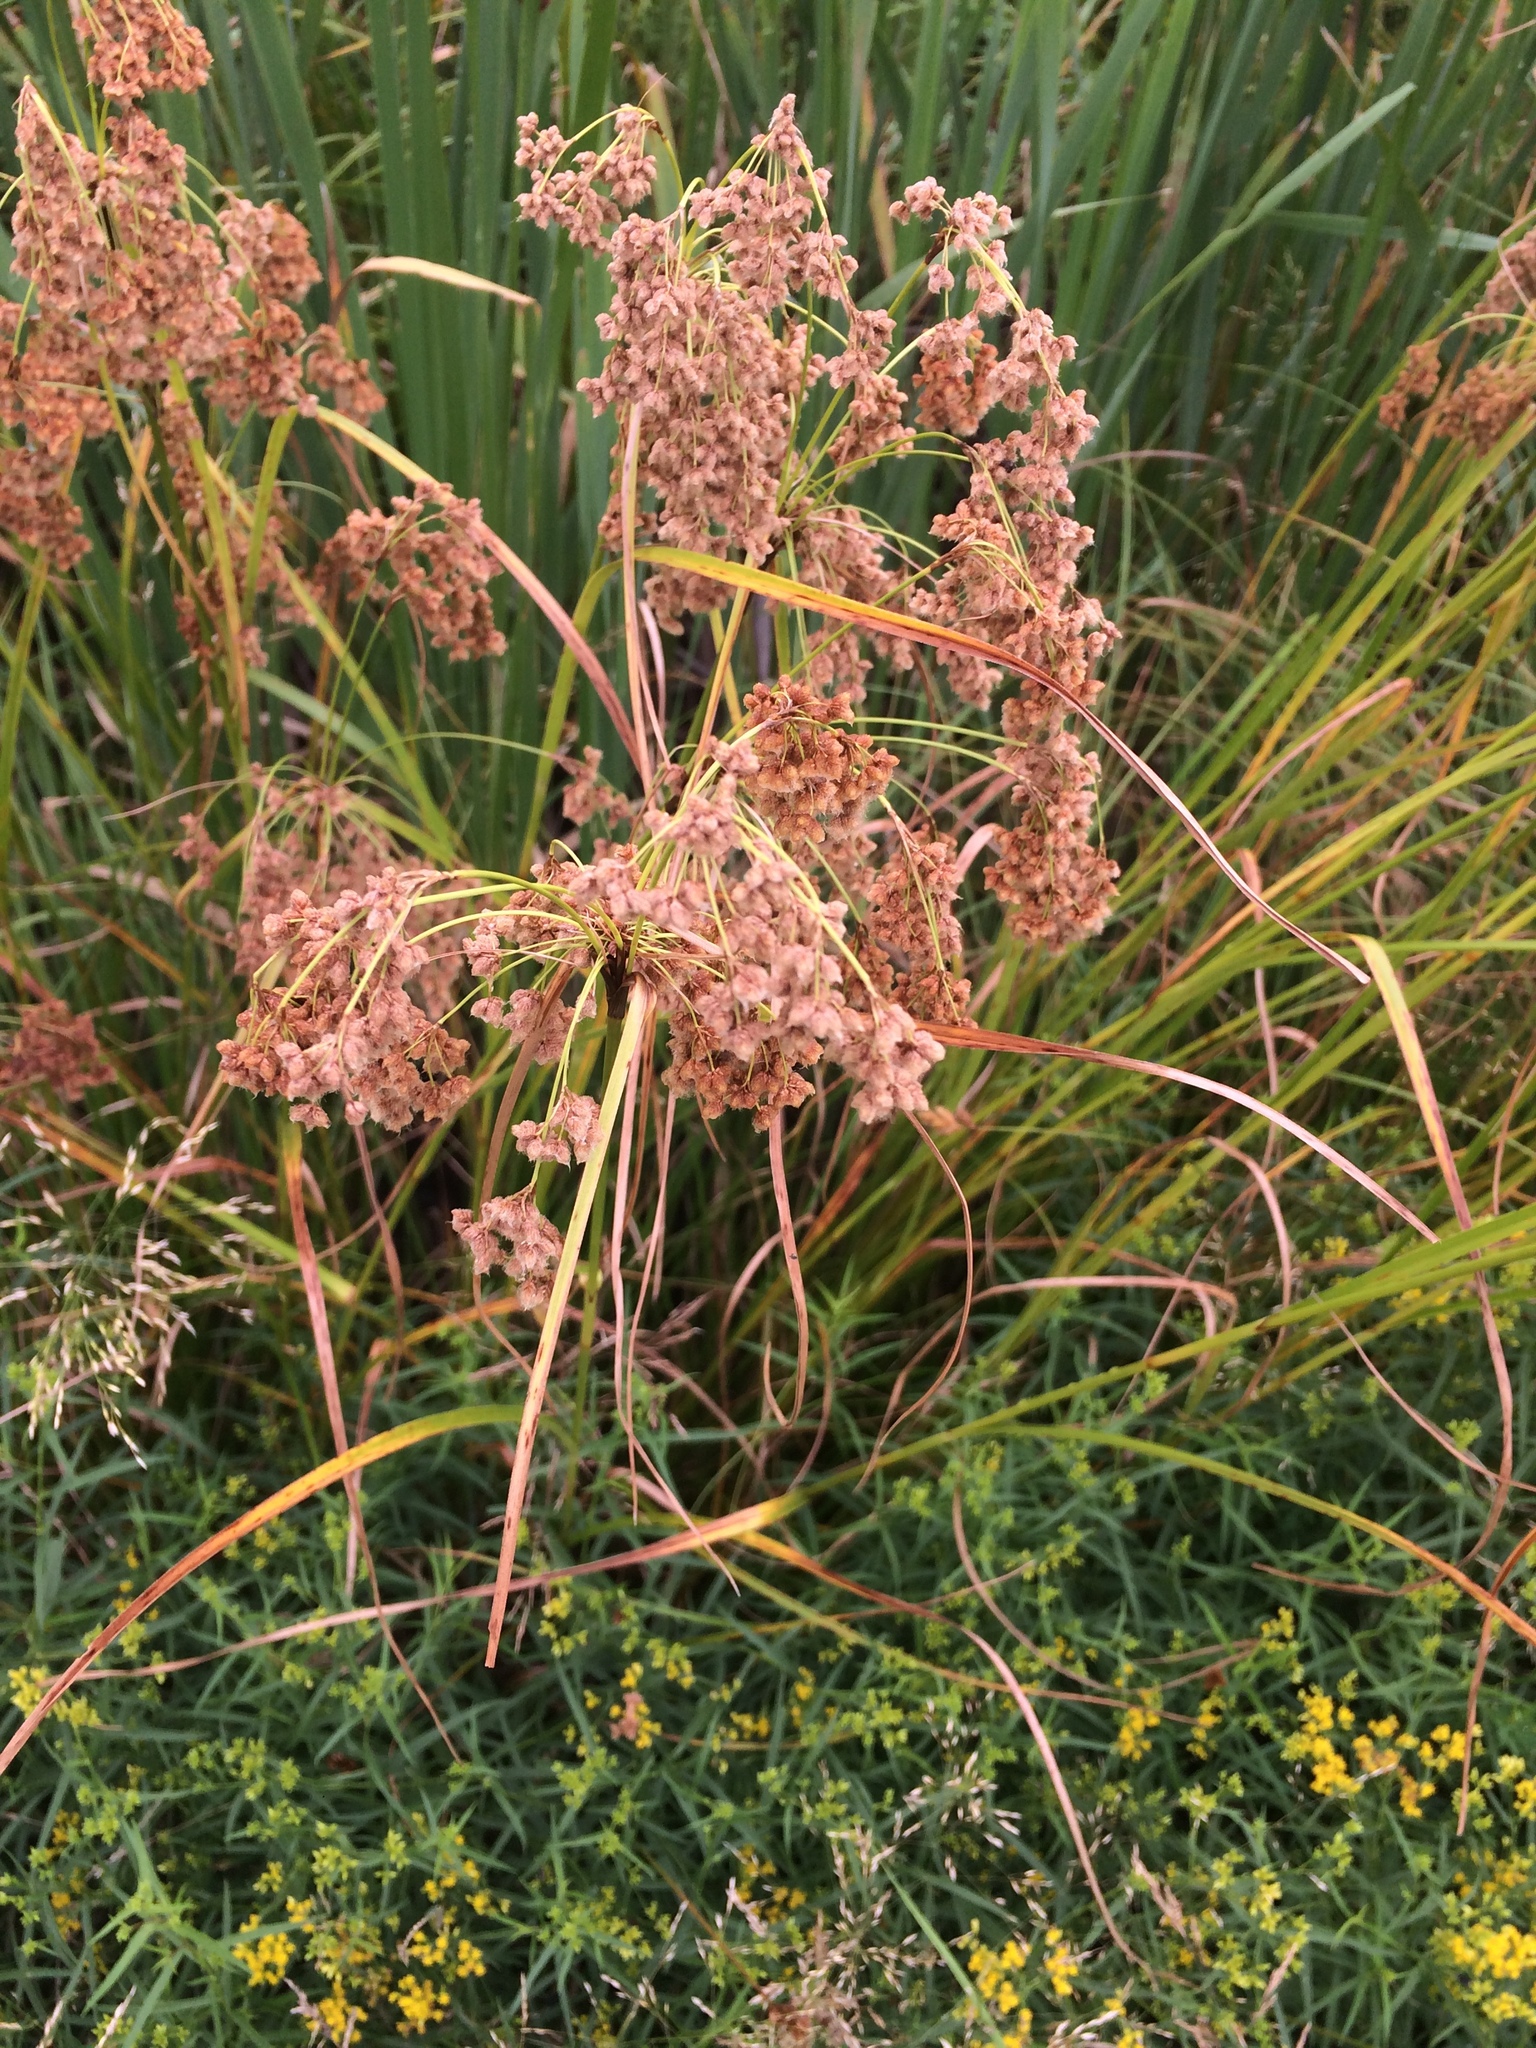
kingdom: Plantae
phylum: Tracheophyta
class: Liliopsida
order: Poales
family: Cyperaceae
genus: Scirpus
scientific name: Scirpus cyperinus
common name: Black-sheathed bulrush
